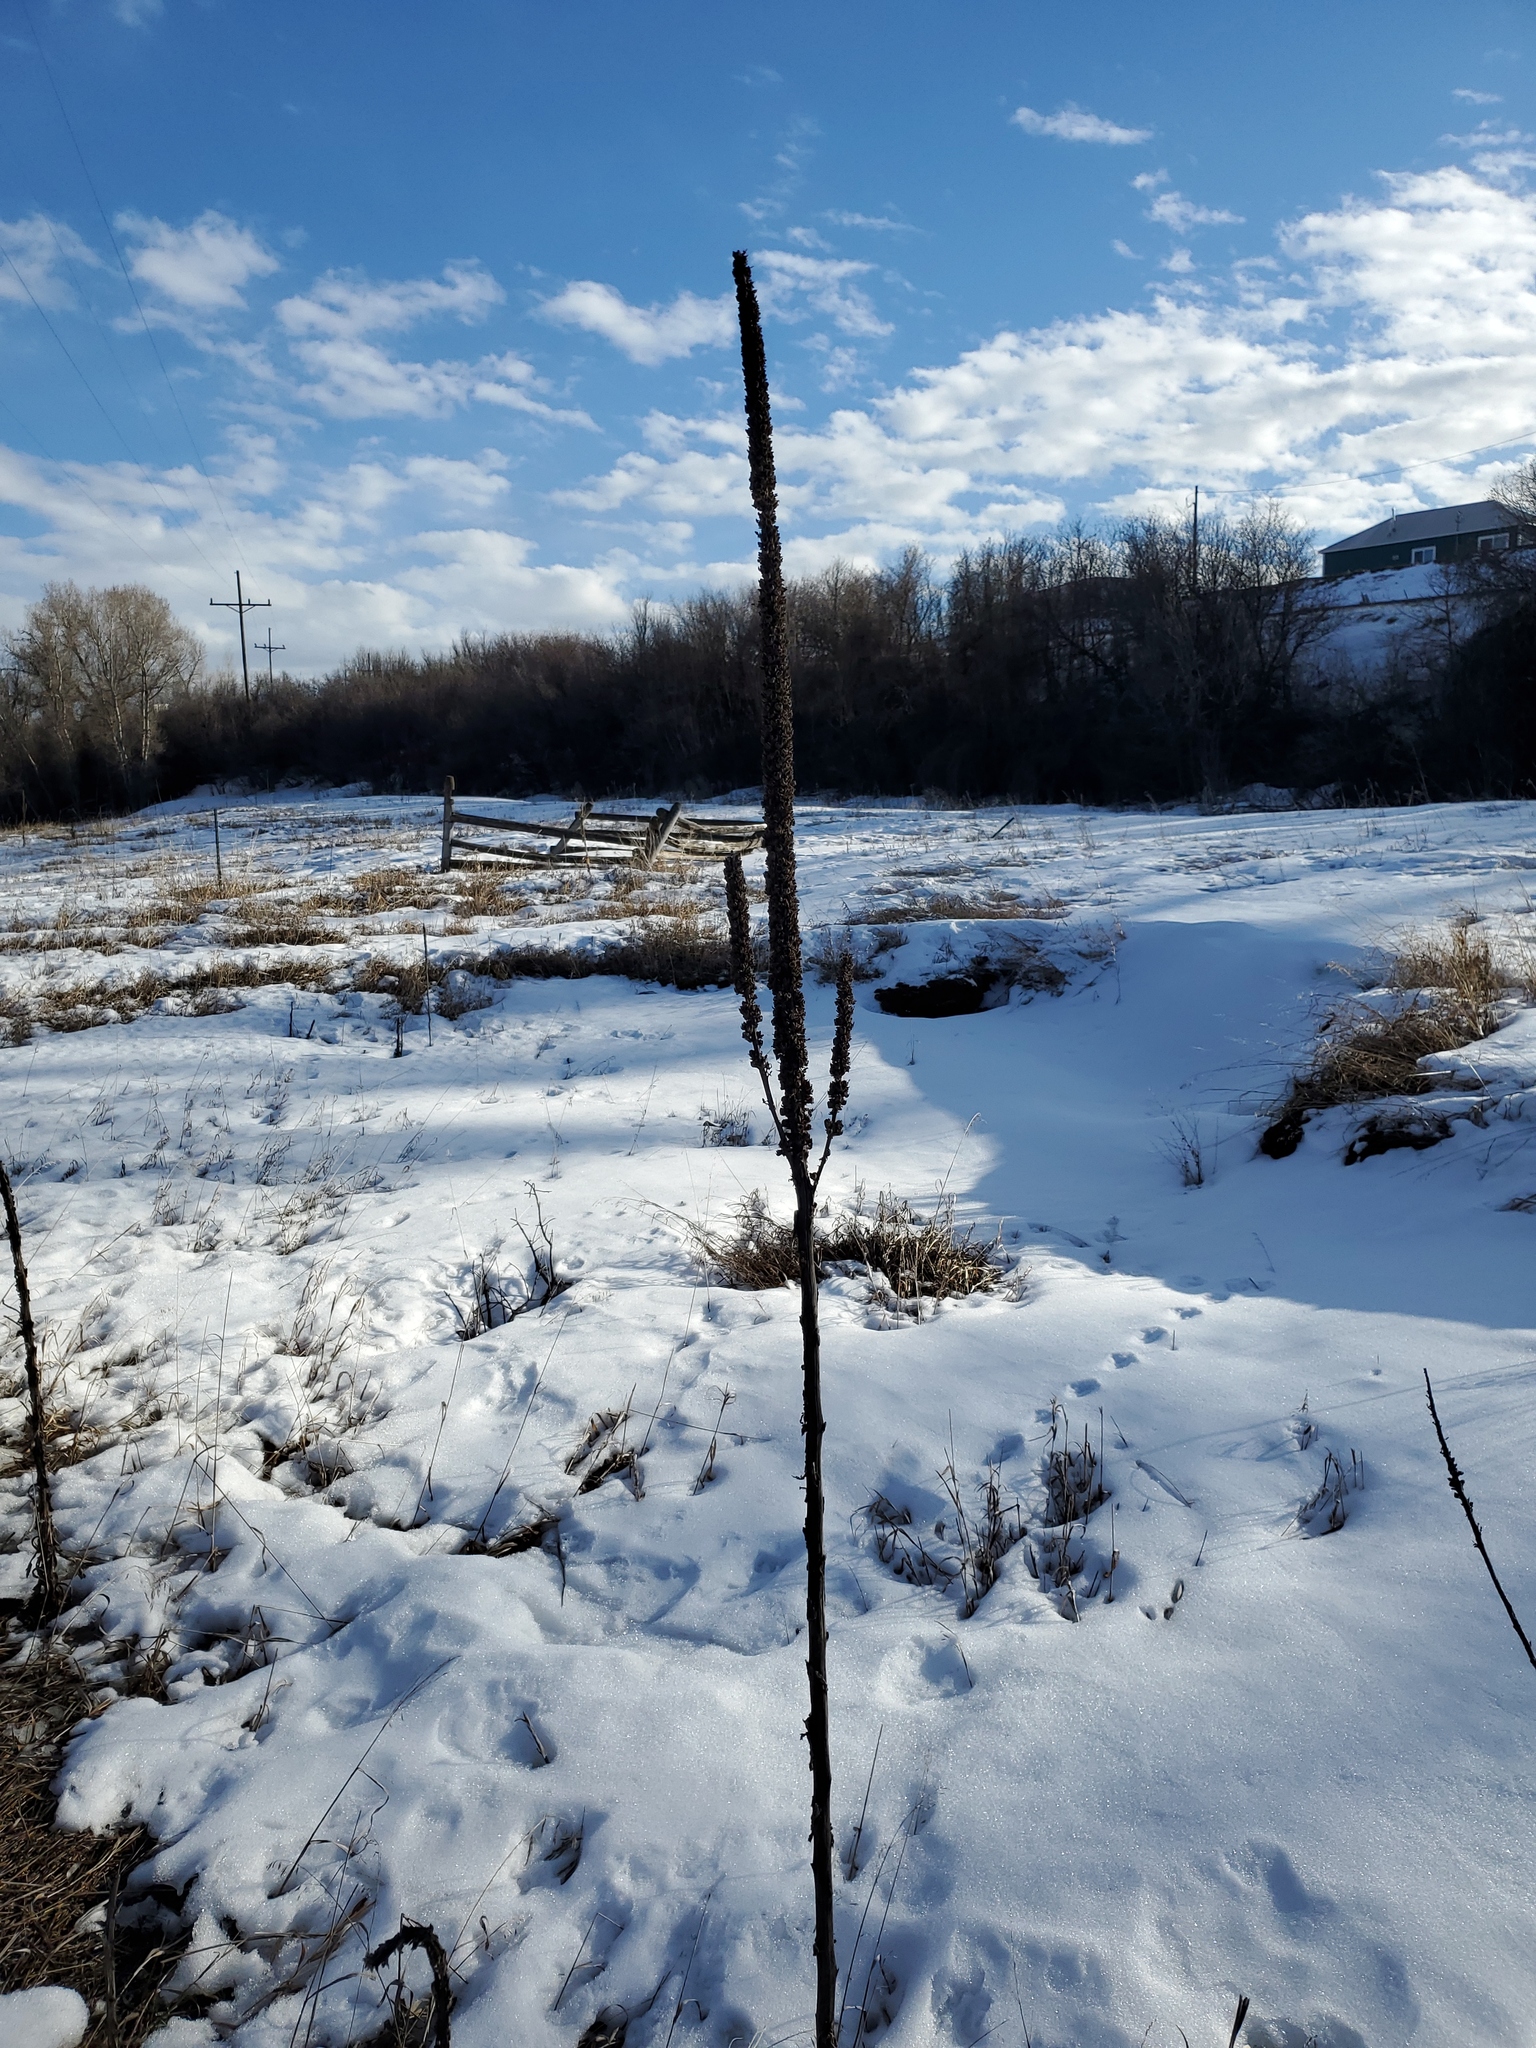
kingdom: Plantae
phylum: Tracheophyta
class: Magnoliopsida
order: Lamiales
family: Scrophulariaceae
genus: Verbascum
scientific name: Verbascum thapsus
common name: Common mullein
